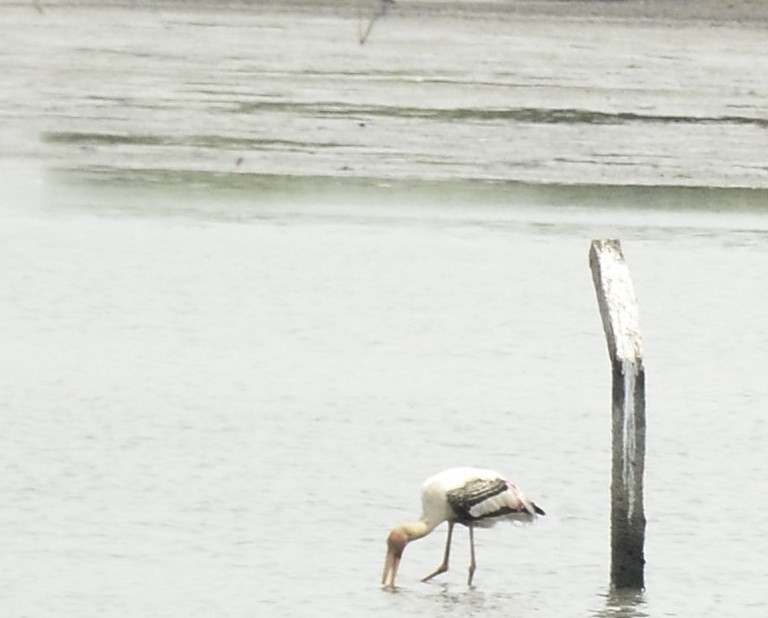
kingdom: Animalia
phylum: Chordata
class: Aves
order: Ciconiiformes
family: Ciconiidae
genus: Mycteria
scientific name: Mycteria leucocephala
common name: Painted stork
